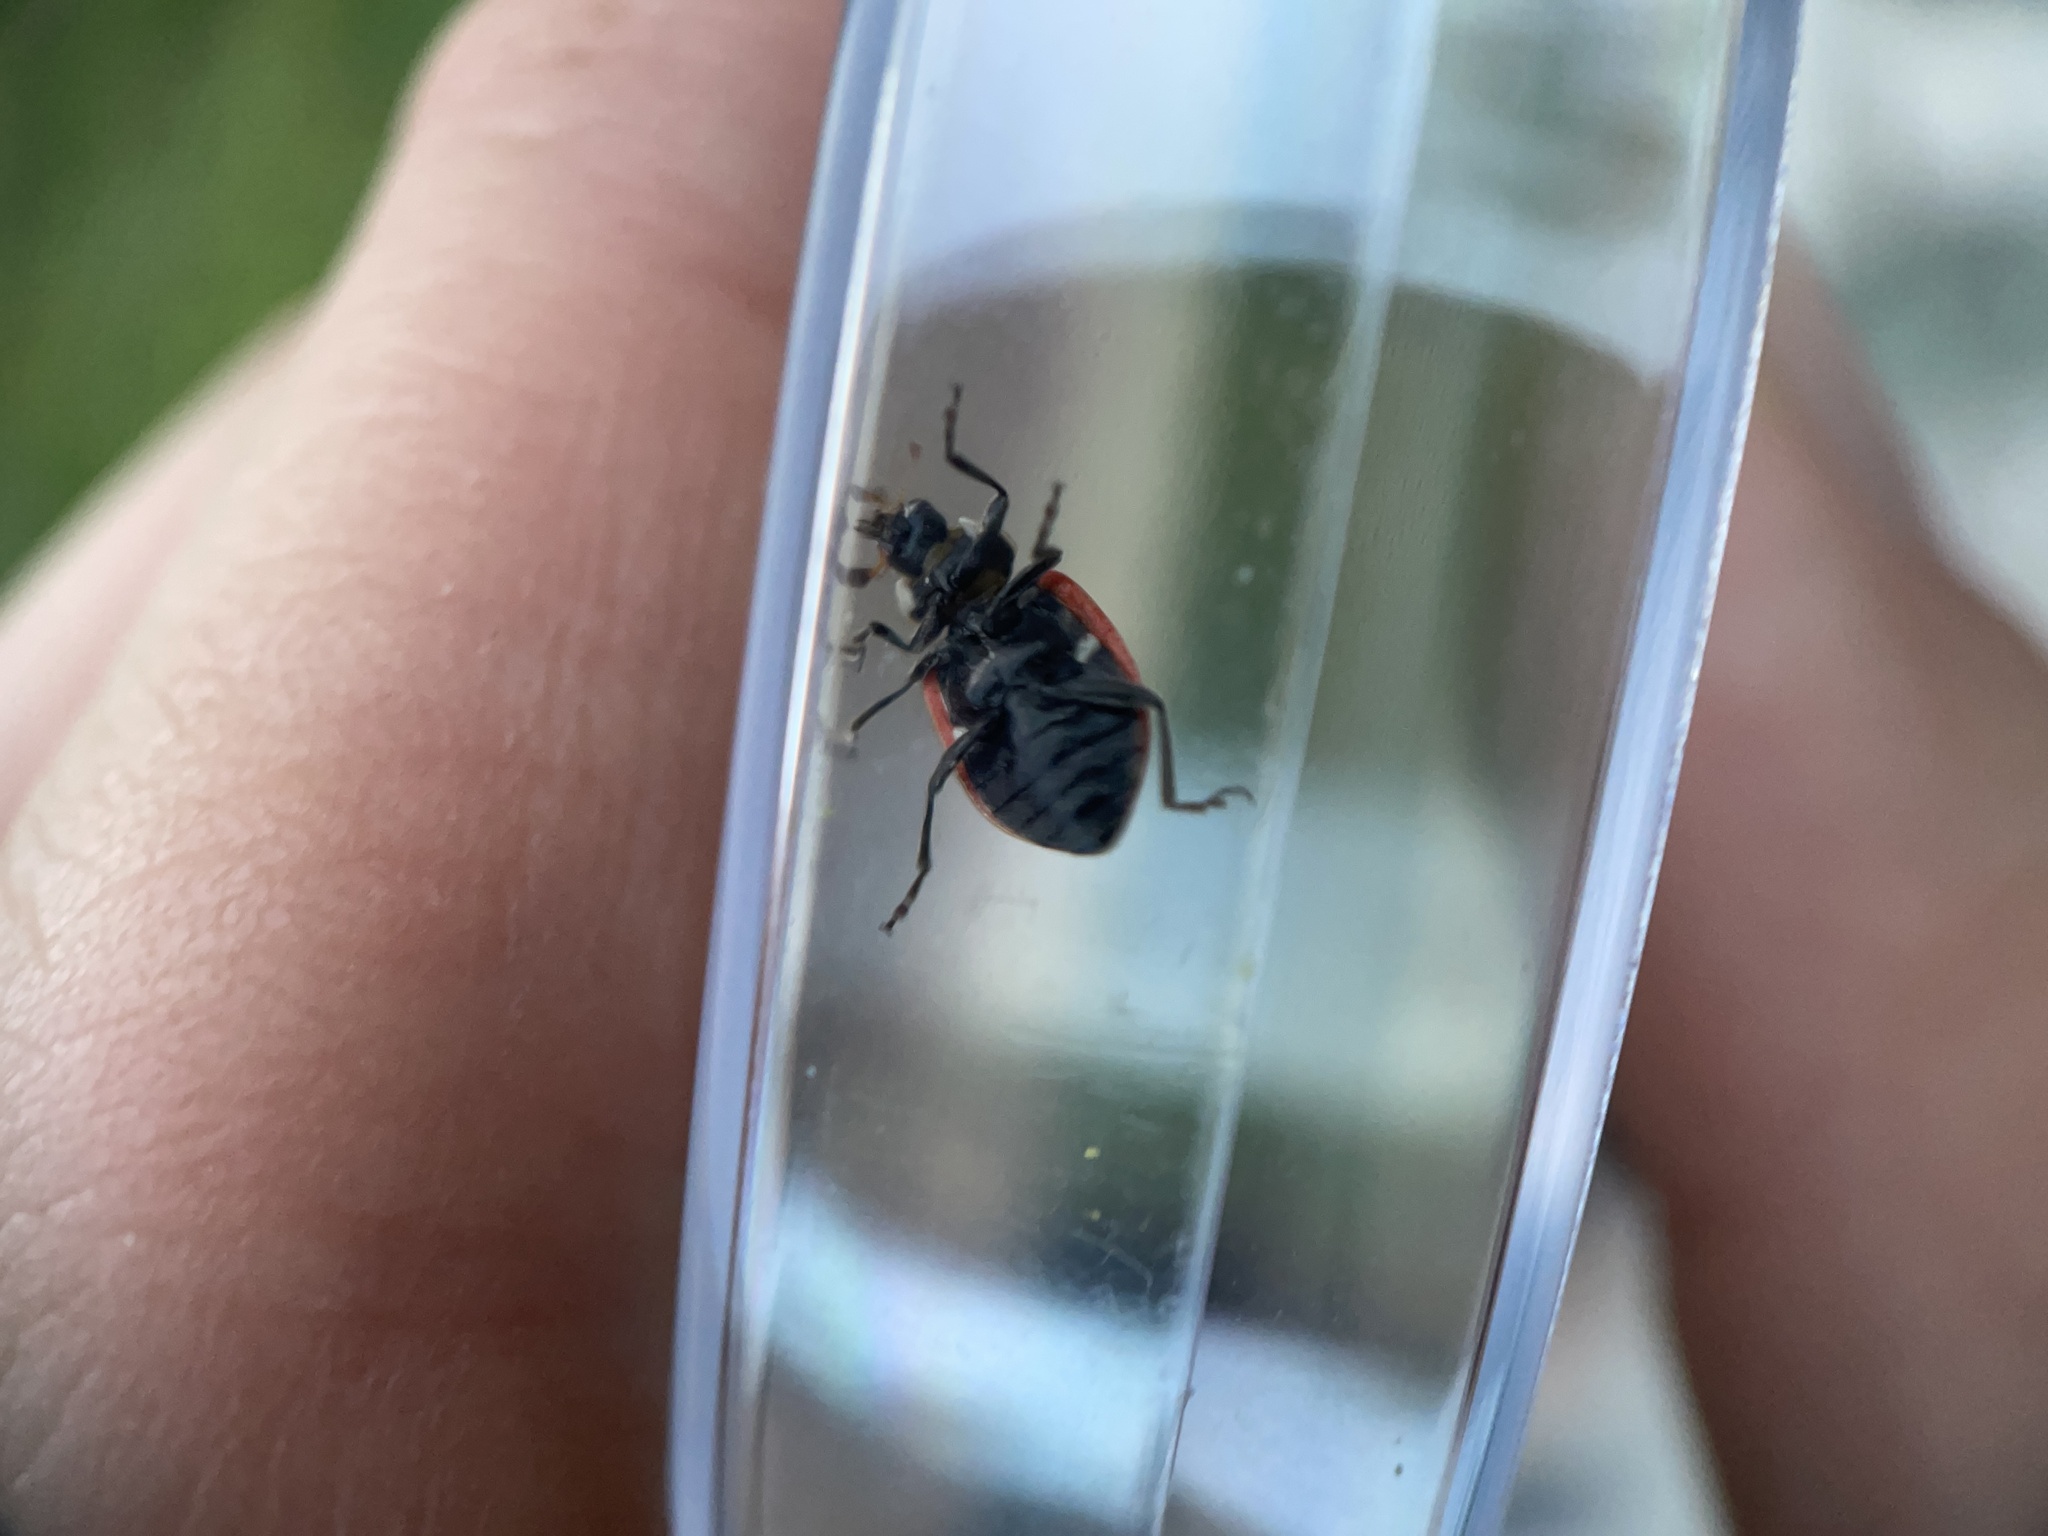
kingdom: Animalia
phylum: Arthropoda
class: Insecta
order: Coleoptera
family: Coccinellidae
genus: Hippodamia
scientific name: Hippodamia convergens
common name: Convergent lady beetle
